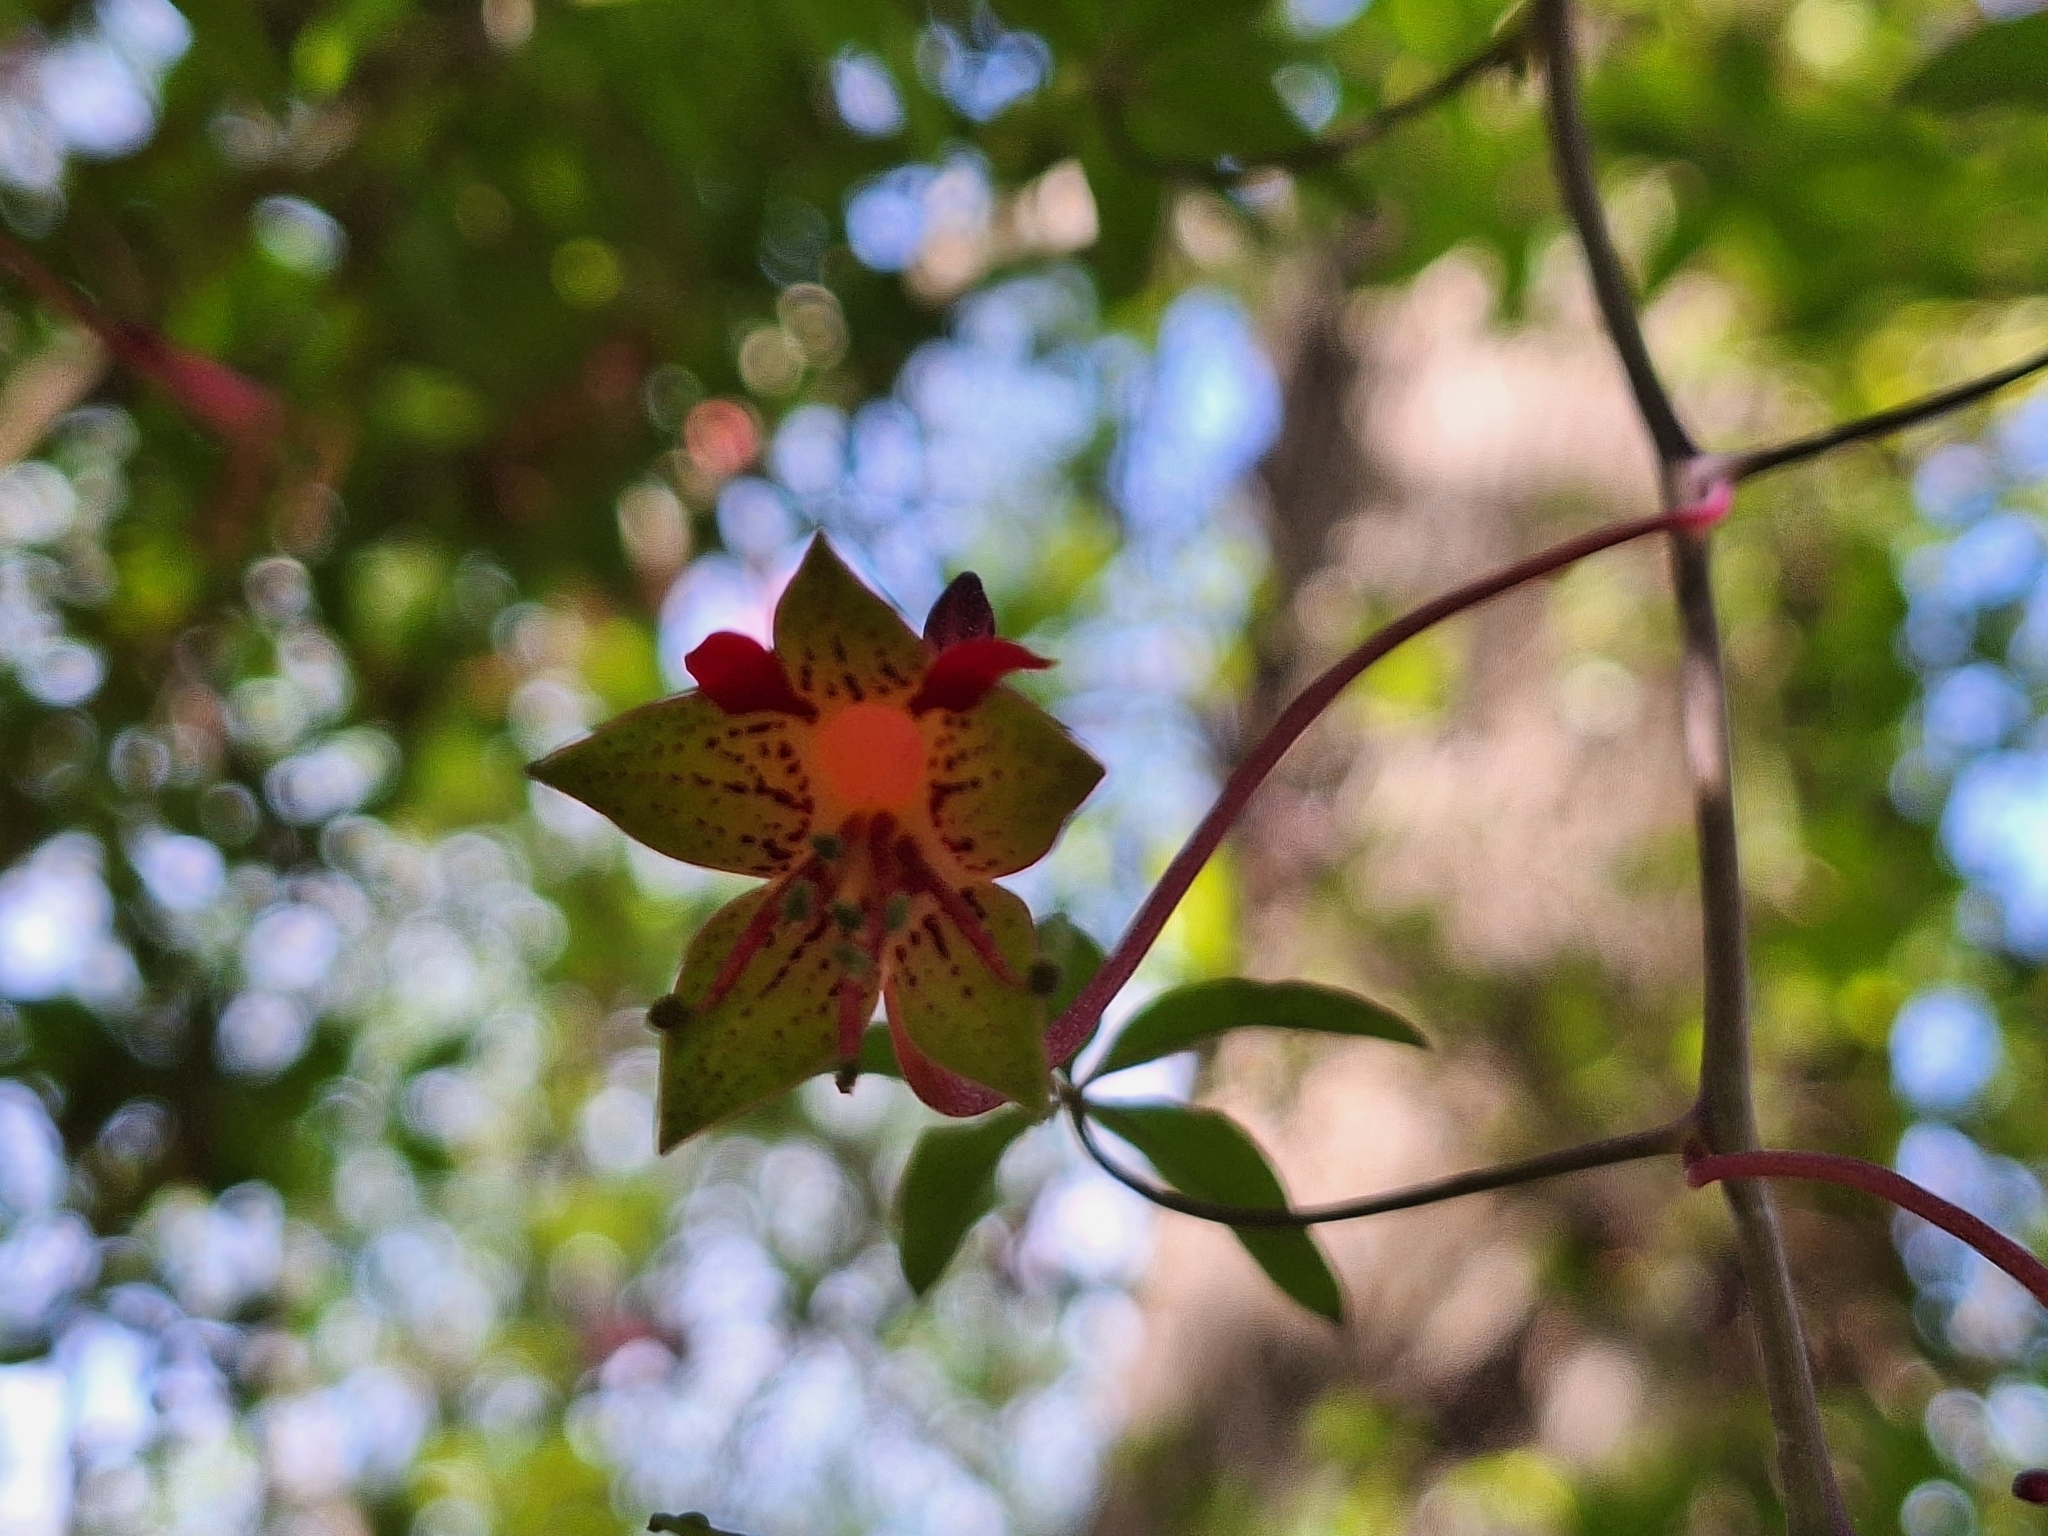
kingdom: Plantae
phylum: Tracheophyta
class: Magnoliopsida
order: Brassicales
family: Tropaeolaceae
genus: Tropaeolum
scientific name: Tropaeolum pentaphyllum
